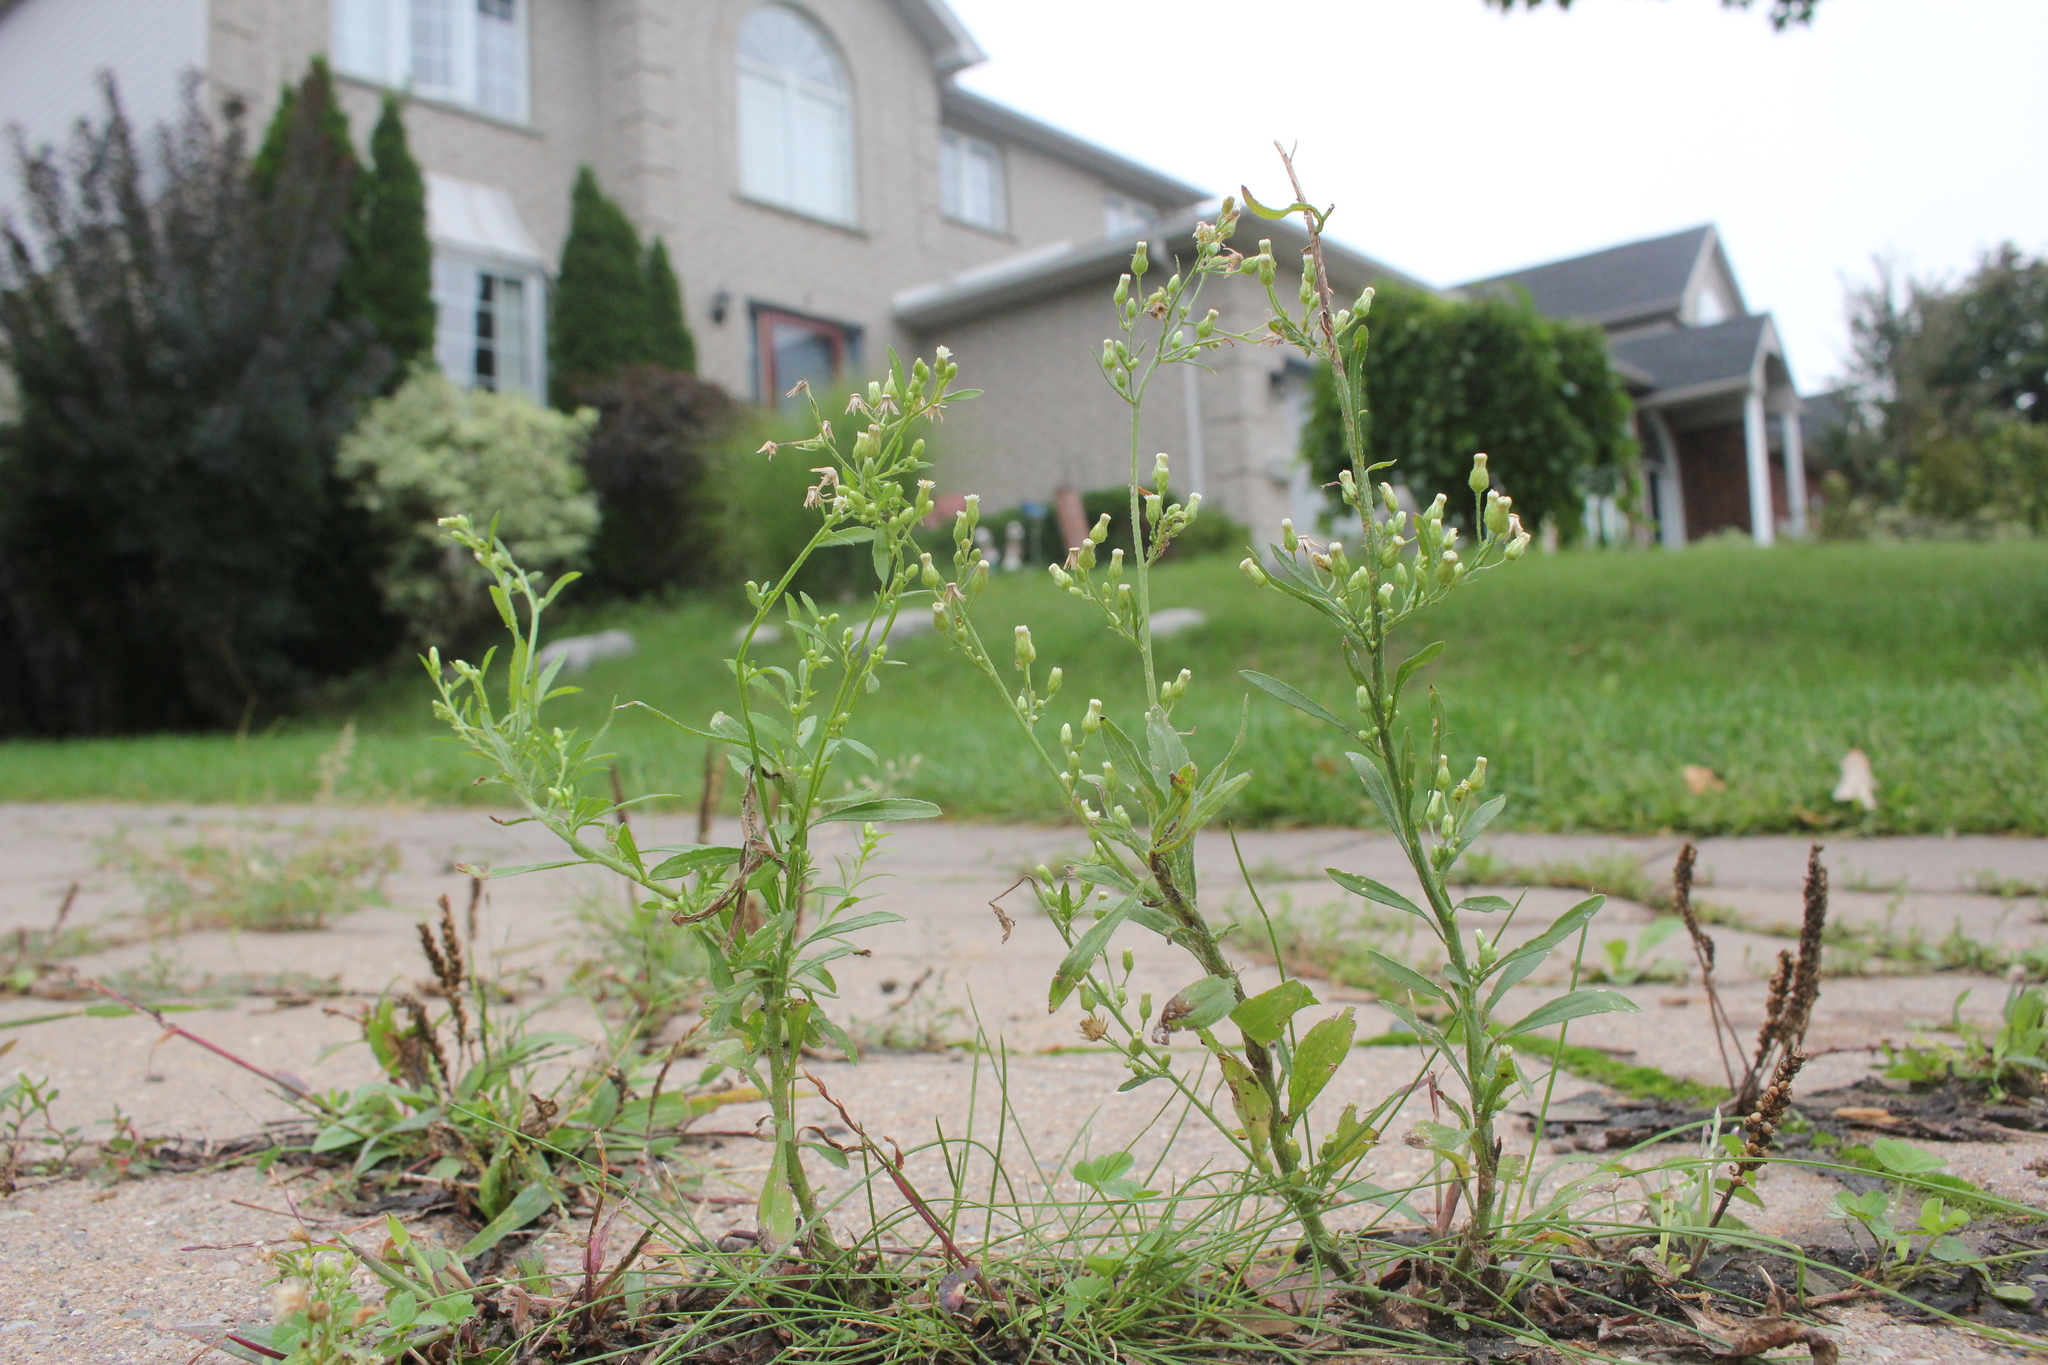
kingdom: Plantae
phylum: Tracheophyta
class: Magnoliopsida
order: Asterales
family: Asteraceae
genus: Erigeron
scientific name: Erigeron canadensis
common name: Canadian fleabane
